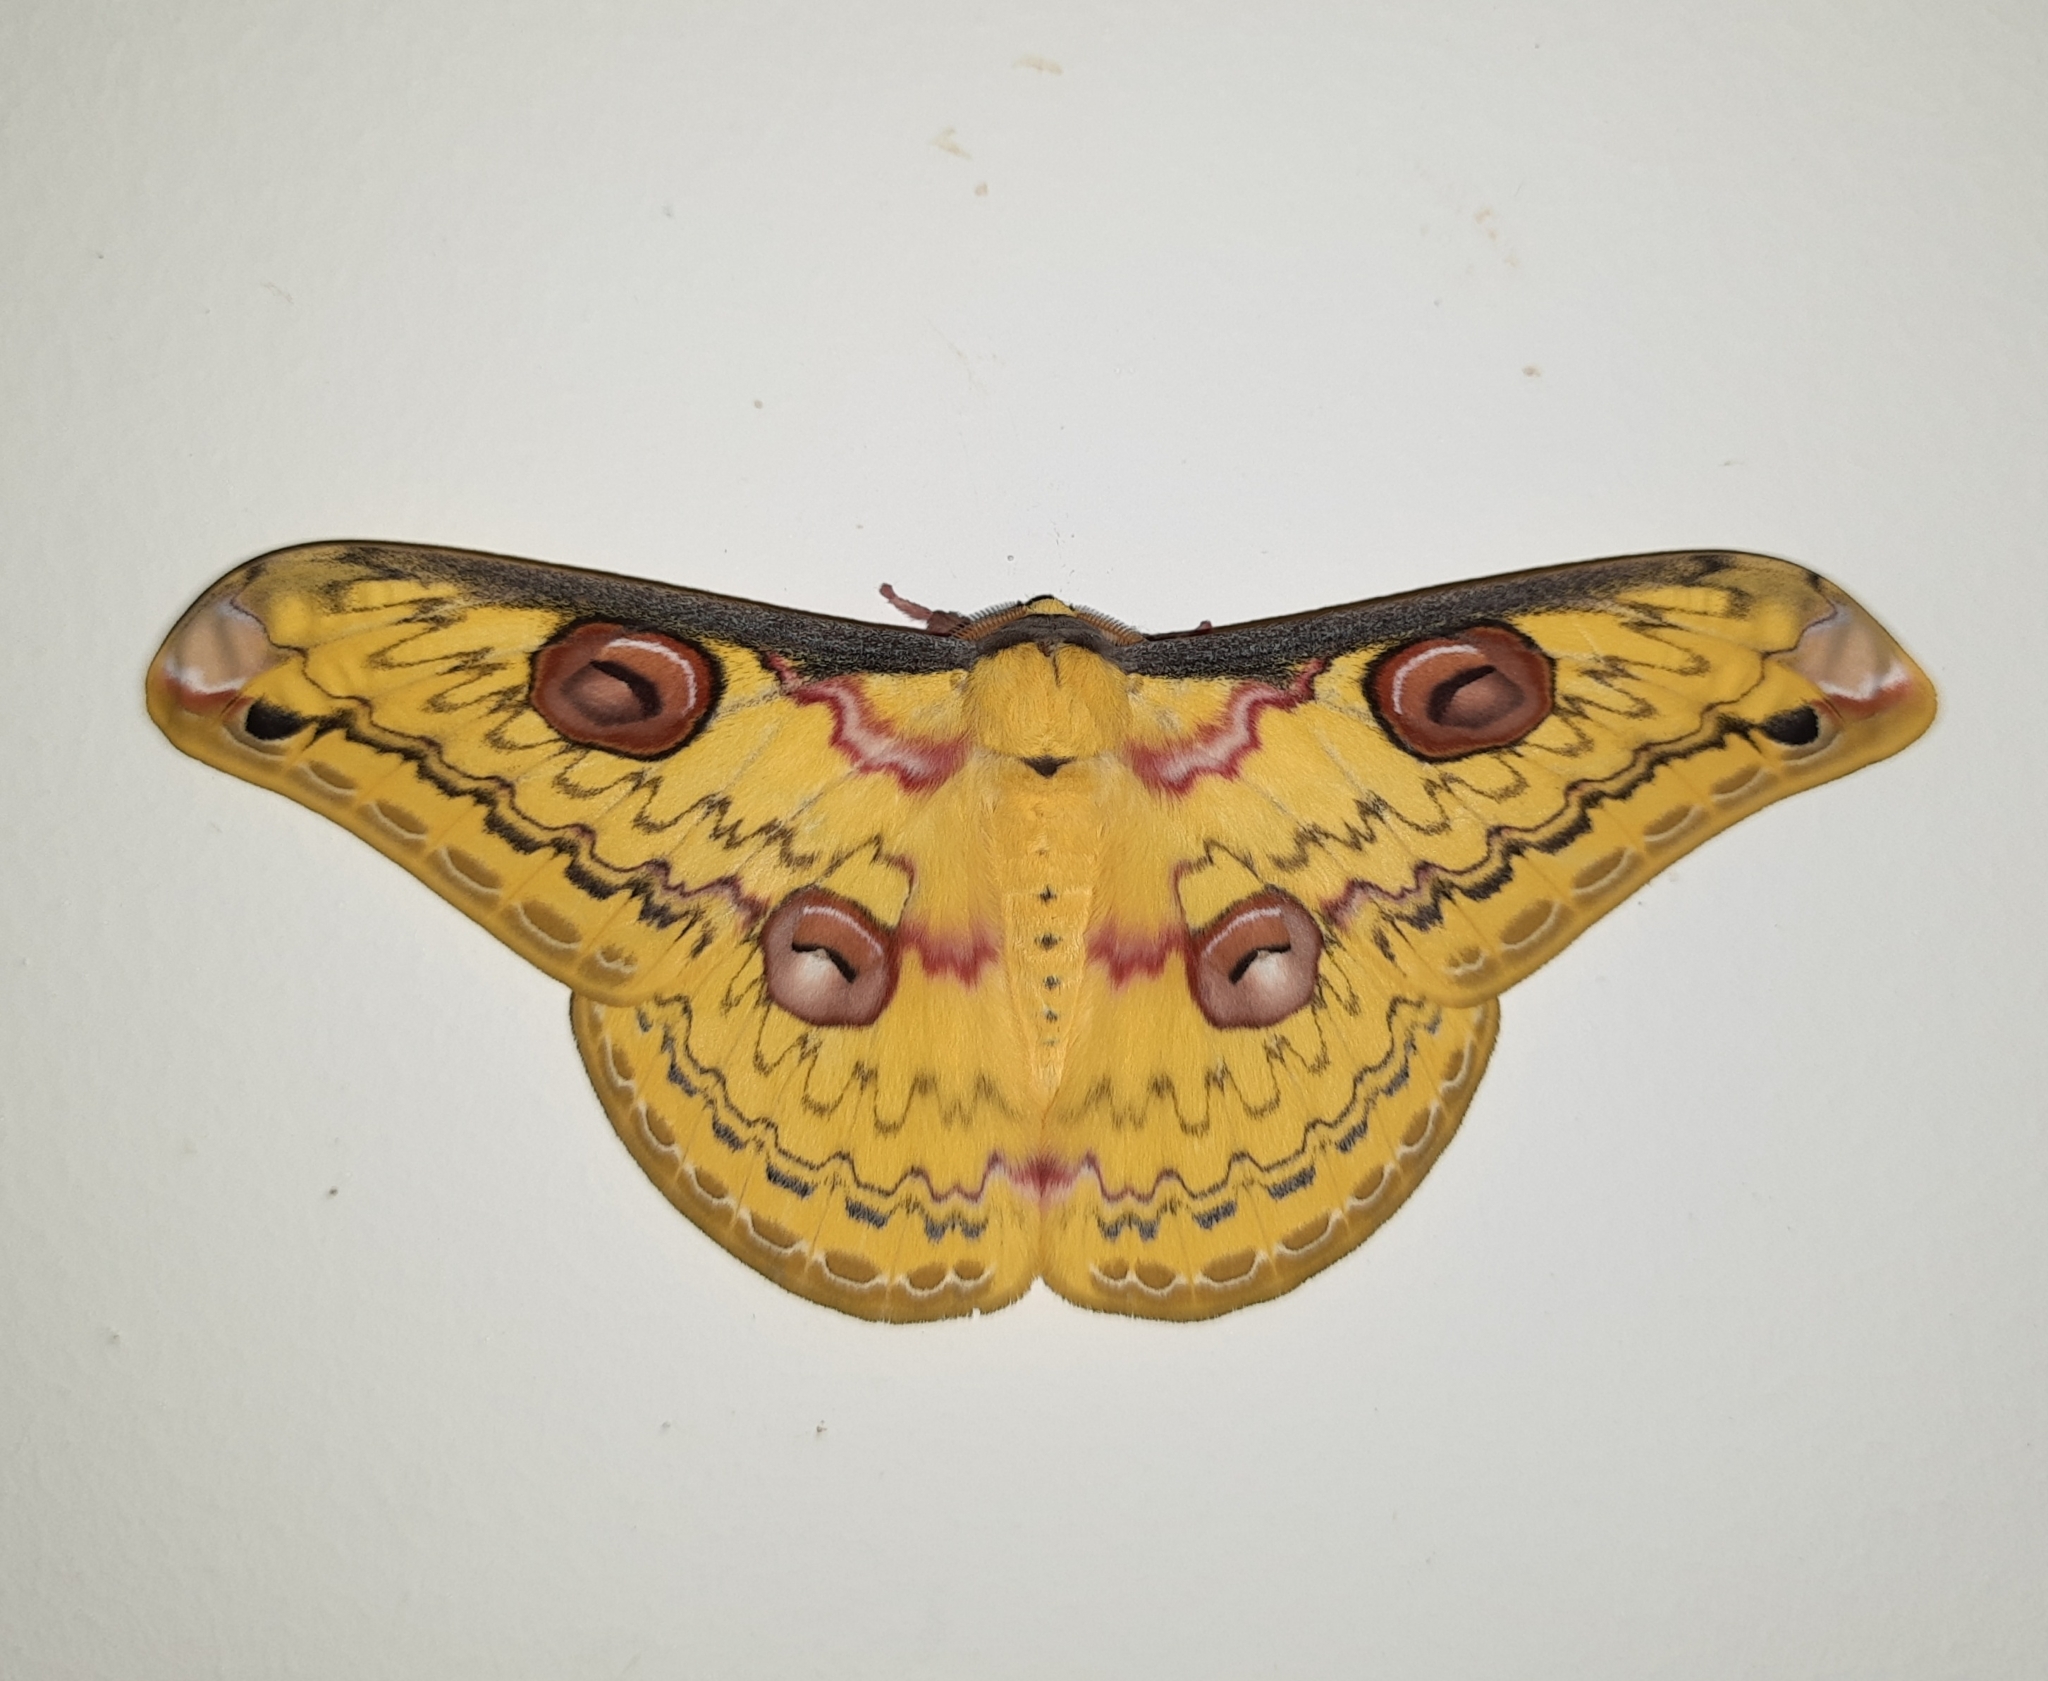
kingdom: Animalia
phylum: Arthropoda
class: Insecta
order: Lepidoptera
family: Saturniidae
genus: Loepa
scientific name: Loepa schintlmeisteri
